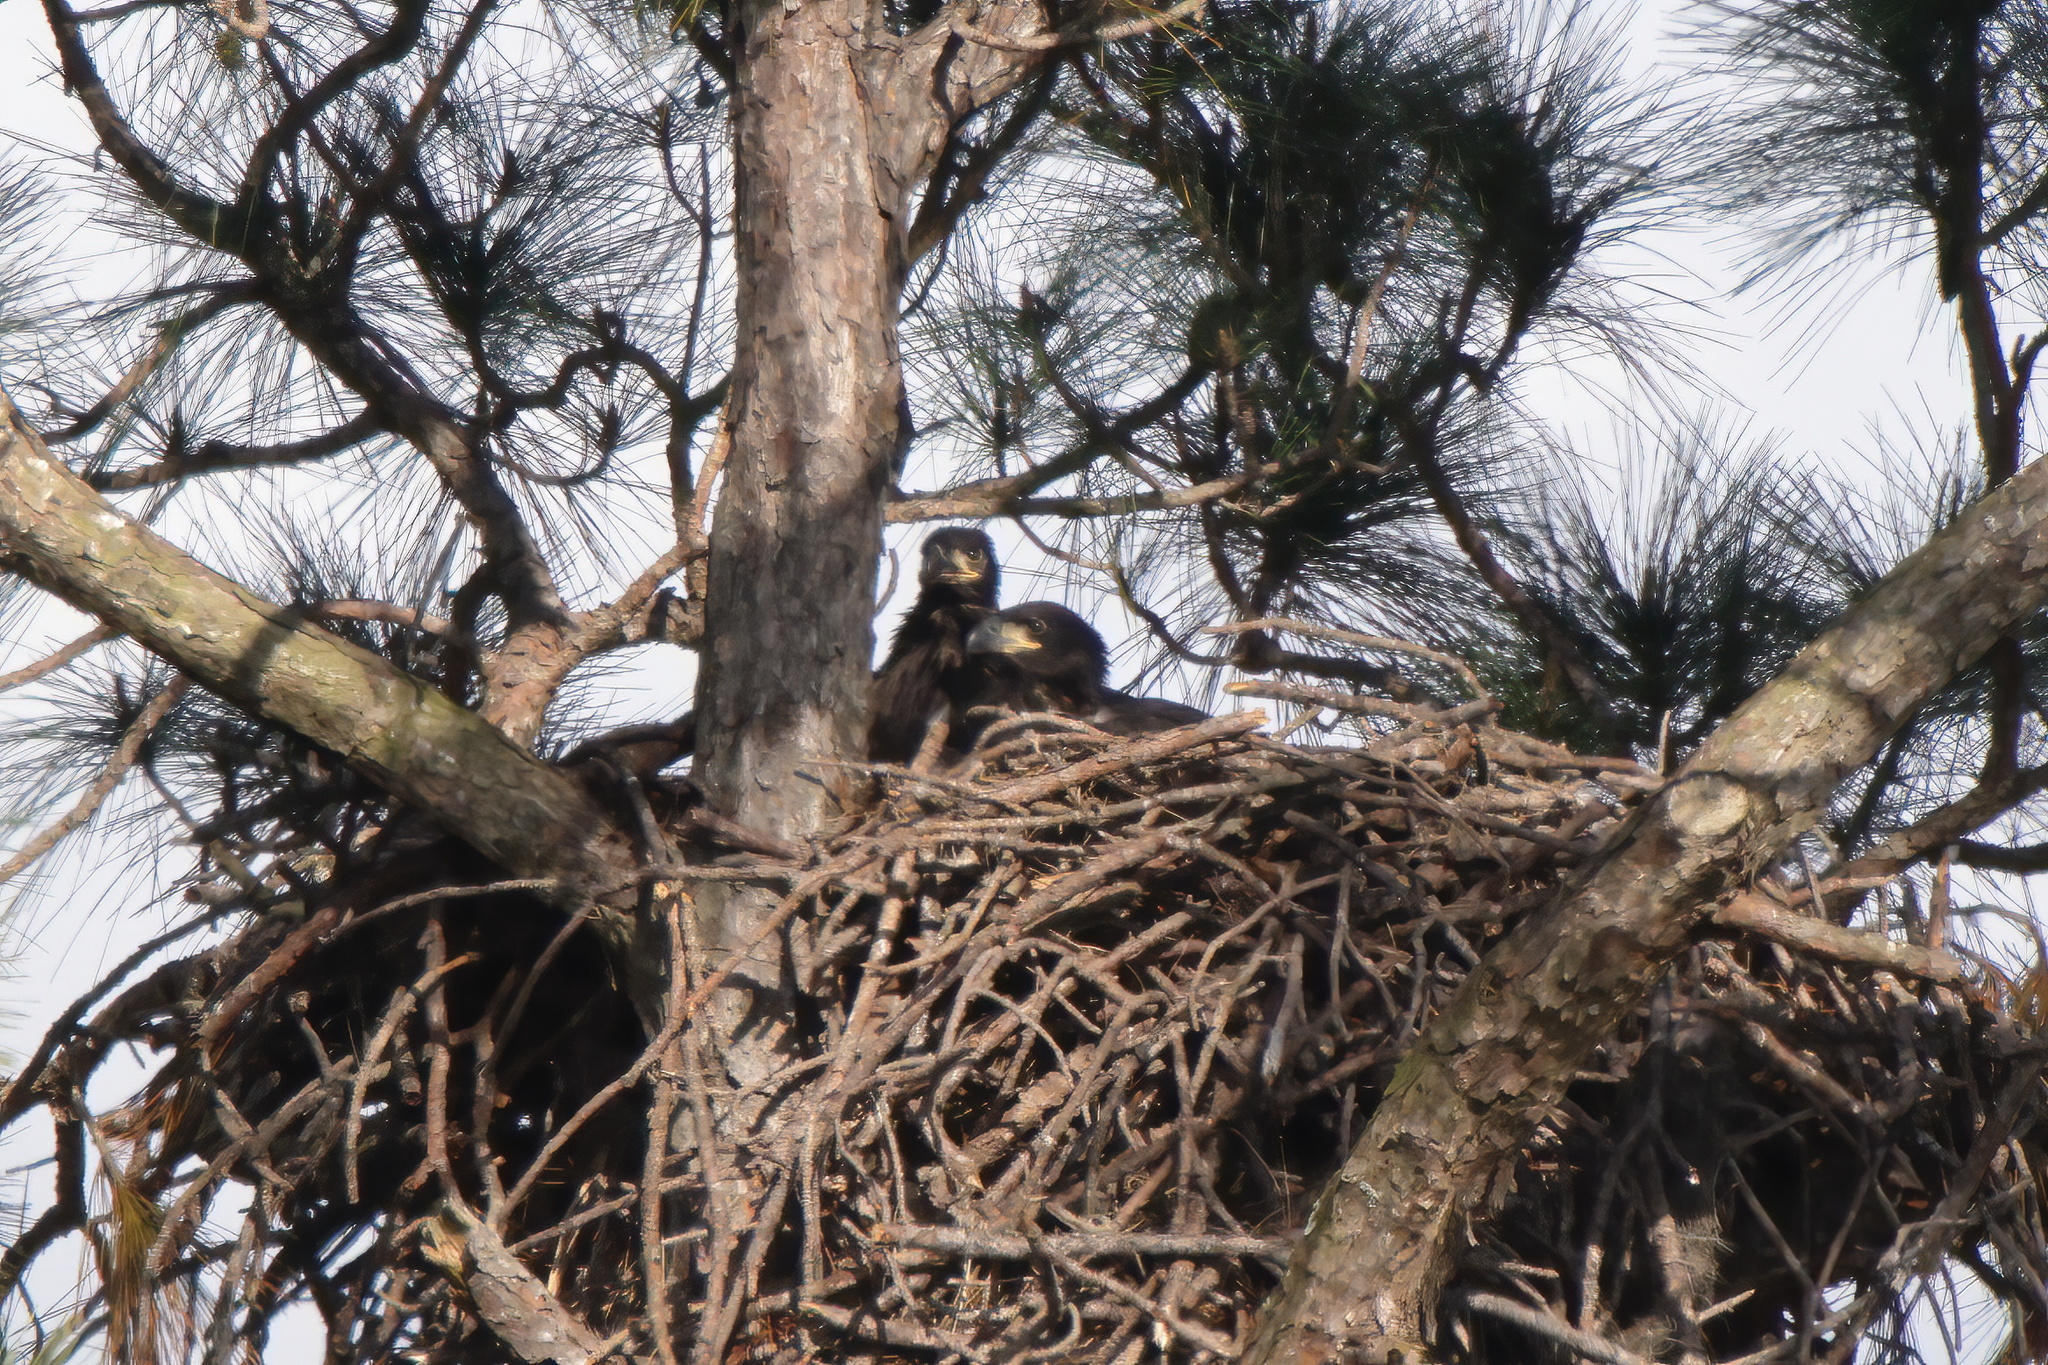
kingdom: Animalia
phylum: Chordata
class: Aves
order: Accipitriformes
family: Accipitridae
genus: Haliaeetus
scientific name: Haliaeetus leucocephalus
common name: Bald eagle
